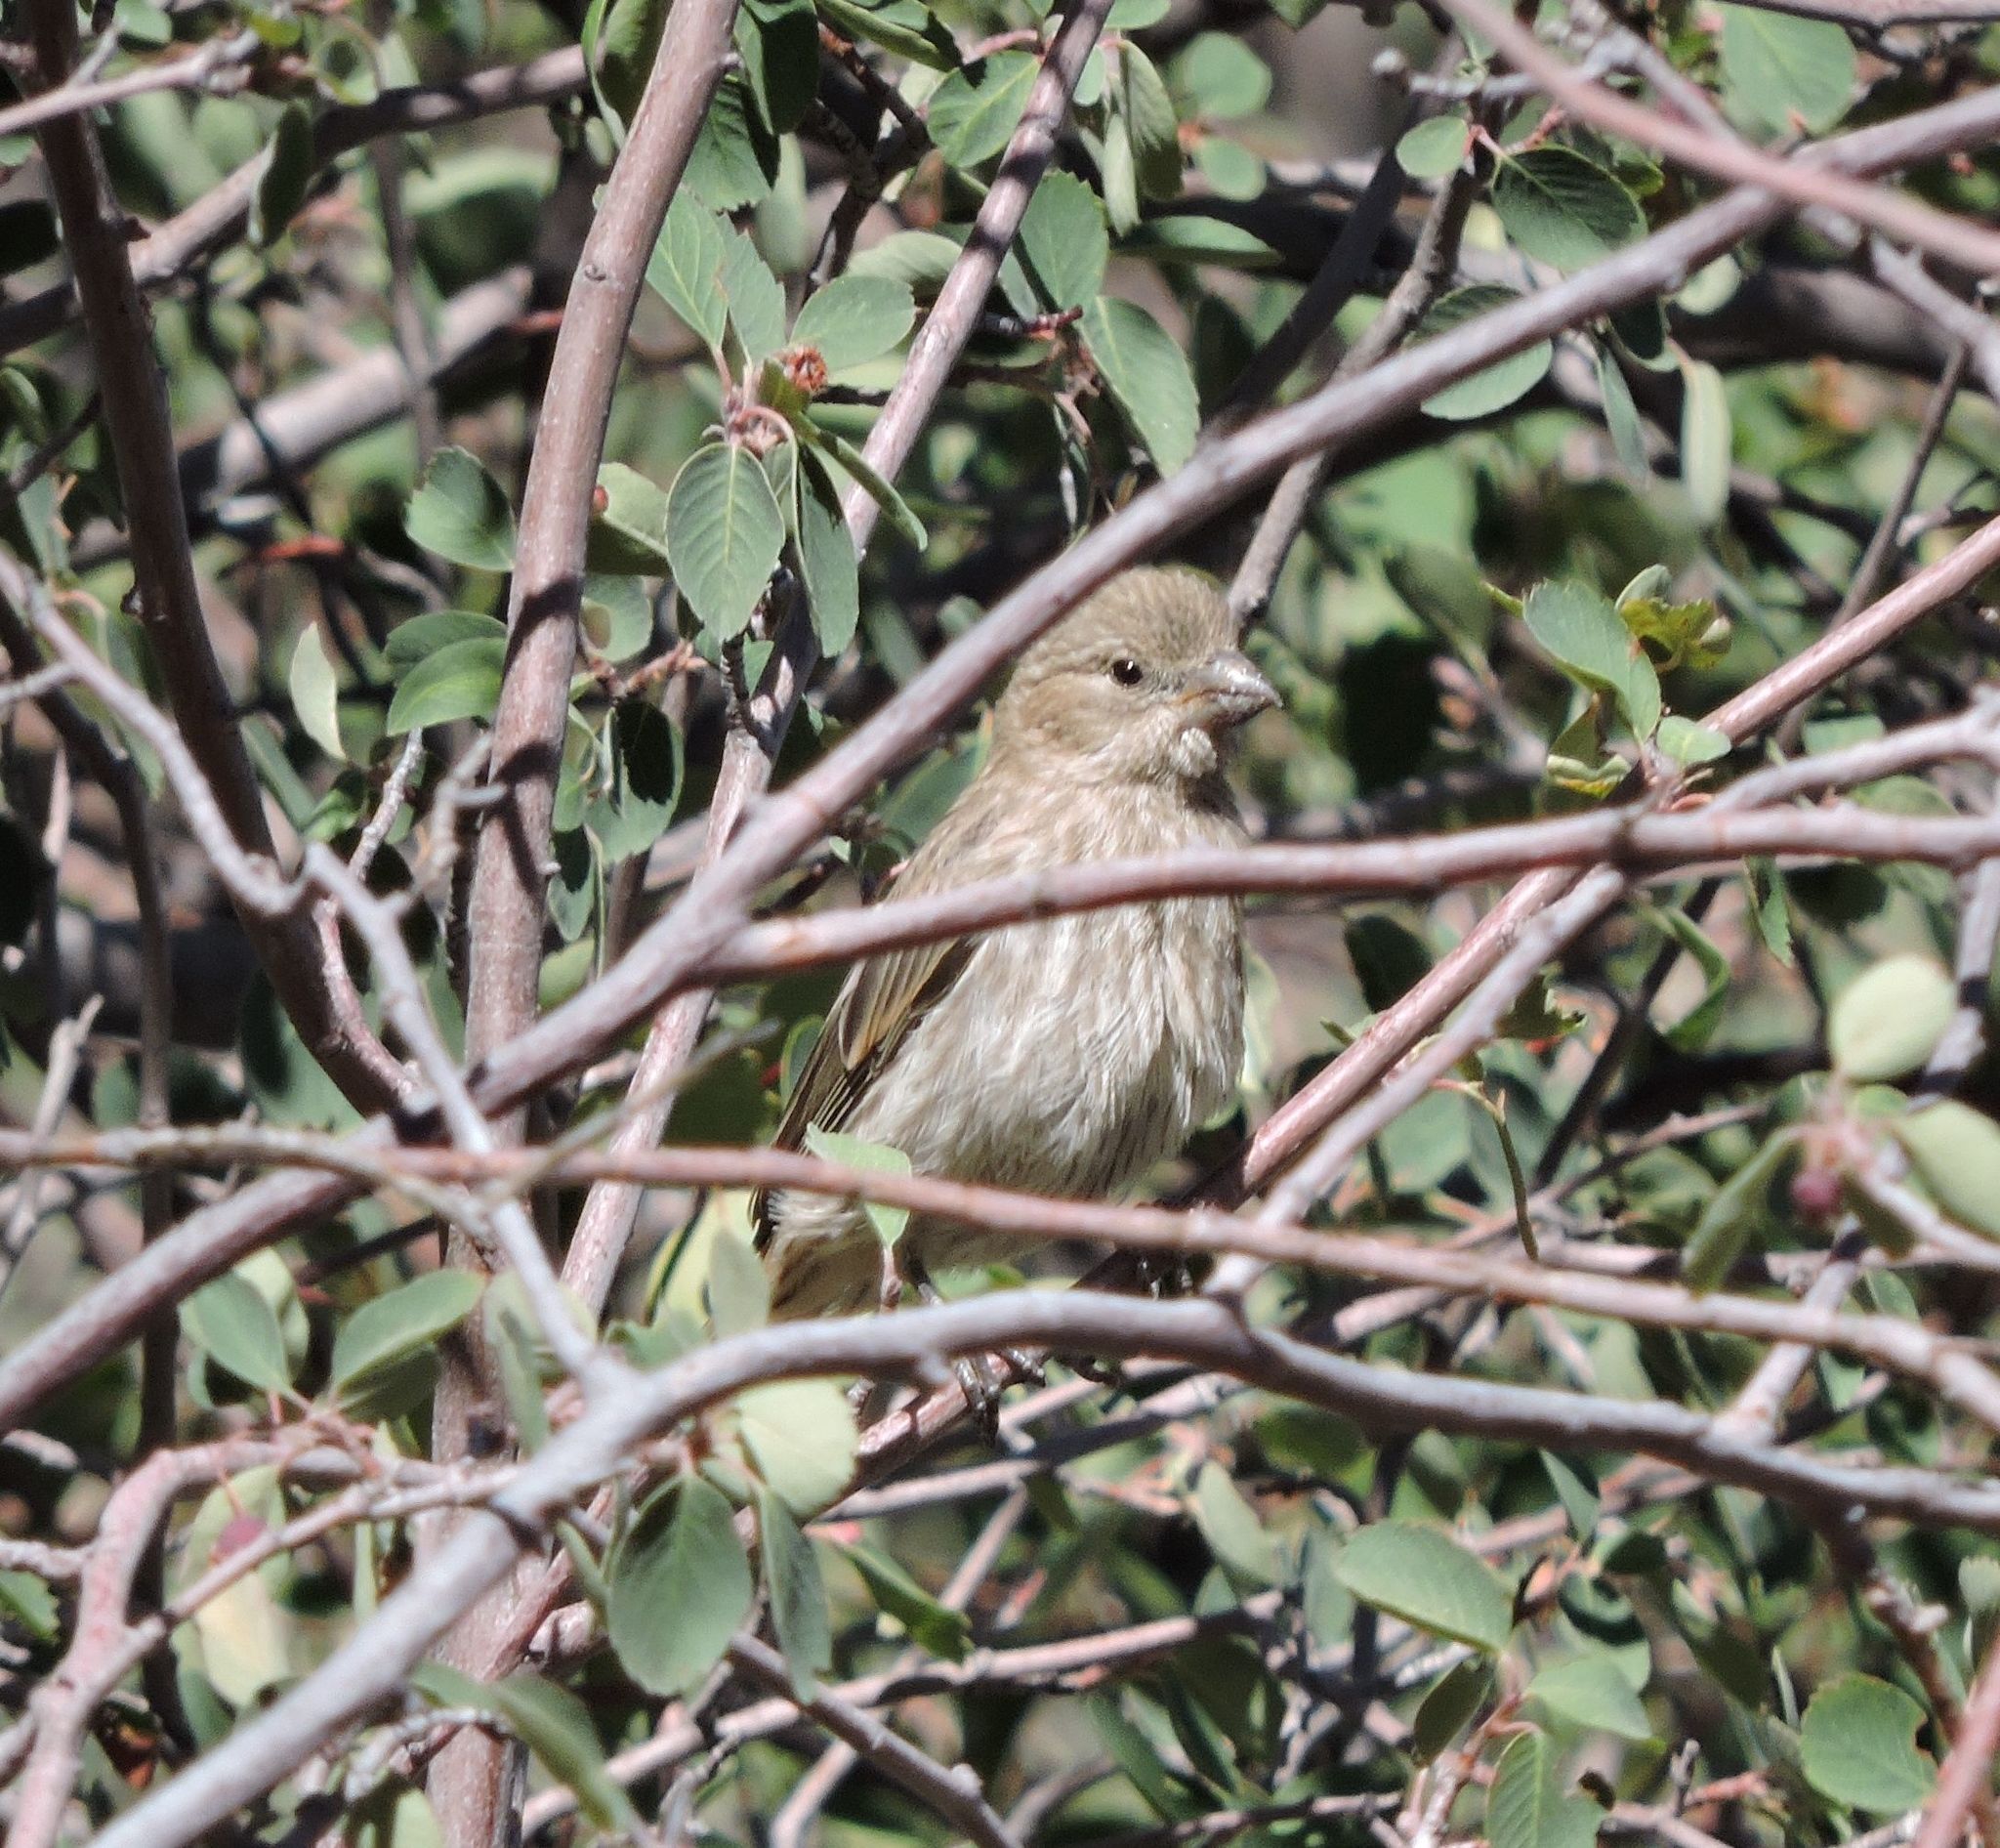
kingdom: Animalia
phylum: Chordata
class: Aves
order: Passeriformes
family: Fringillidae
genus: Haemorhous
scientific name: Haemorhous mexicanus
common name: House finch
